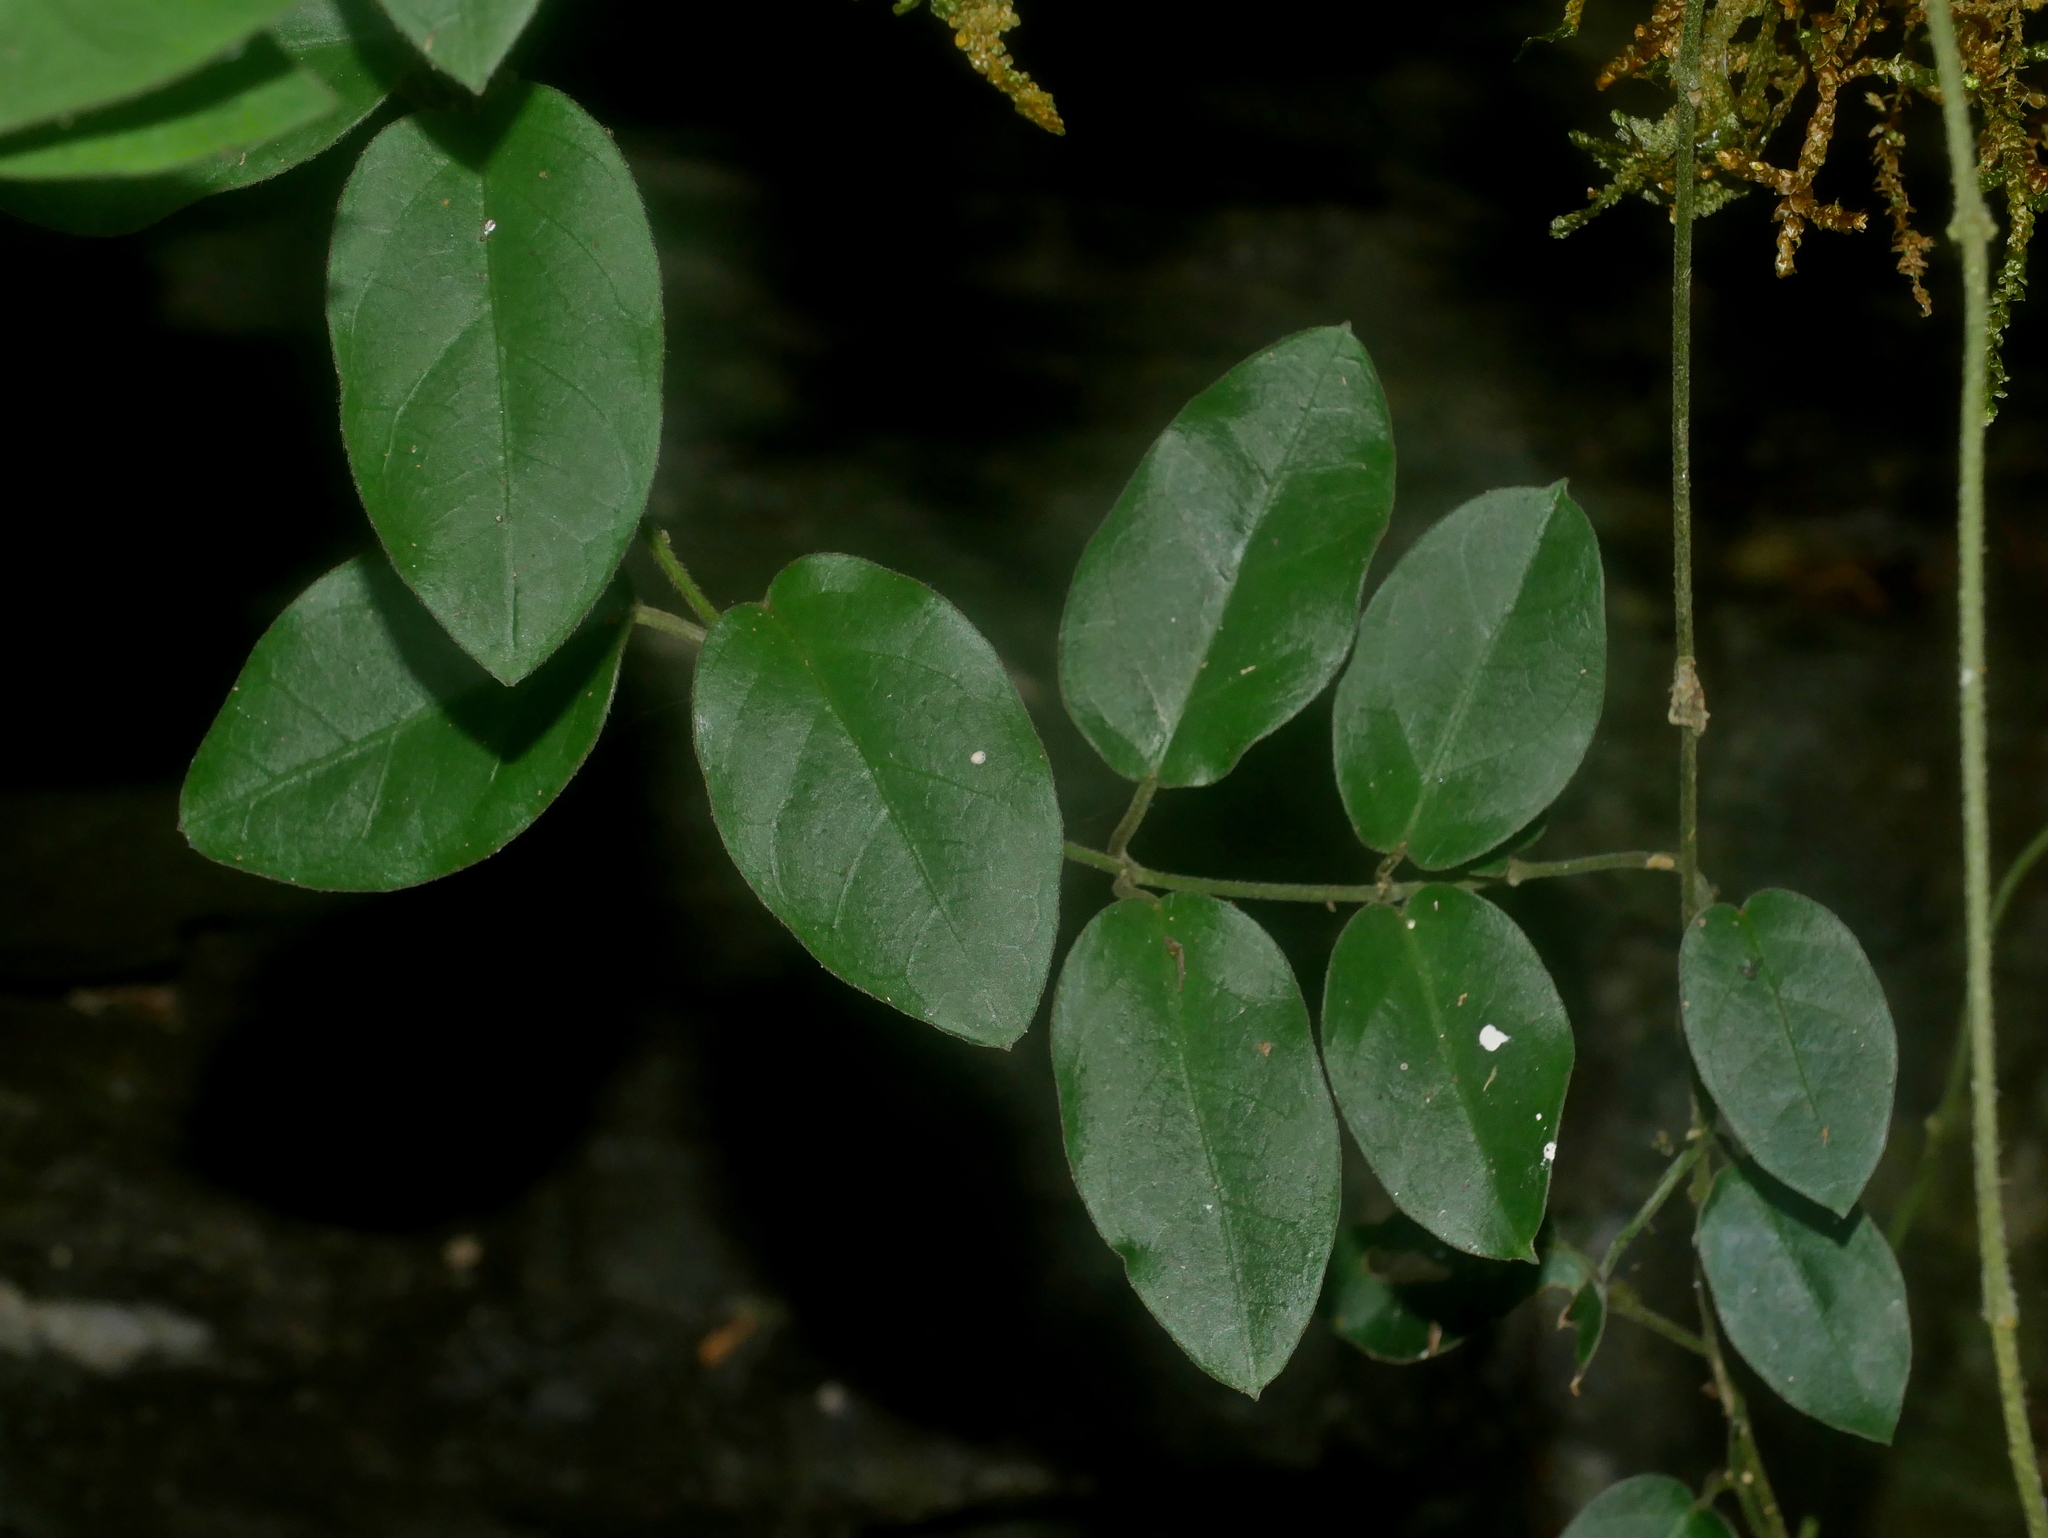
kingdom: Plantae
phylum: Tracheophyta
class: Magnoliopsida
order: Gentianales
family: Apocynaceae
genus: Vincetoxicum
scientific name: Vincetoxicum hirsutum
